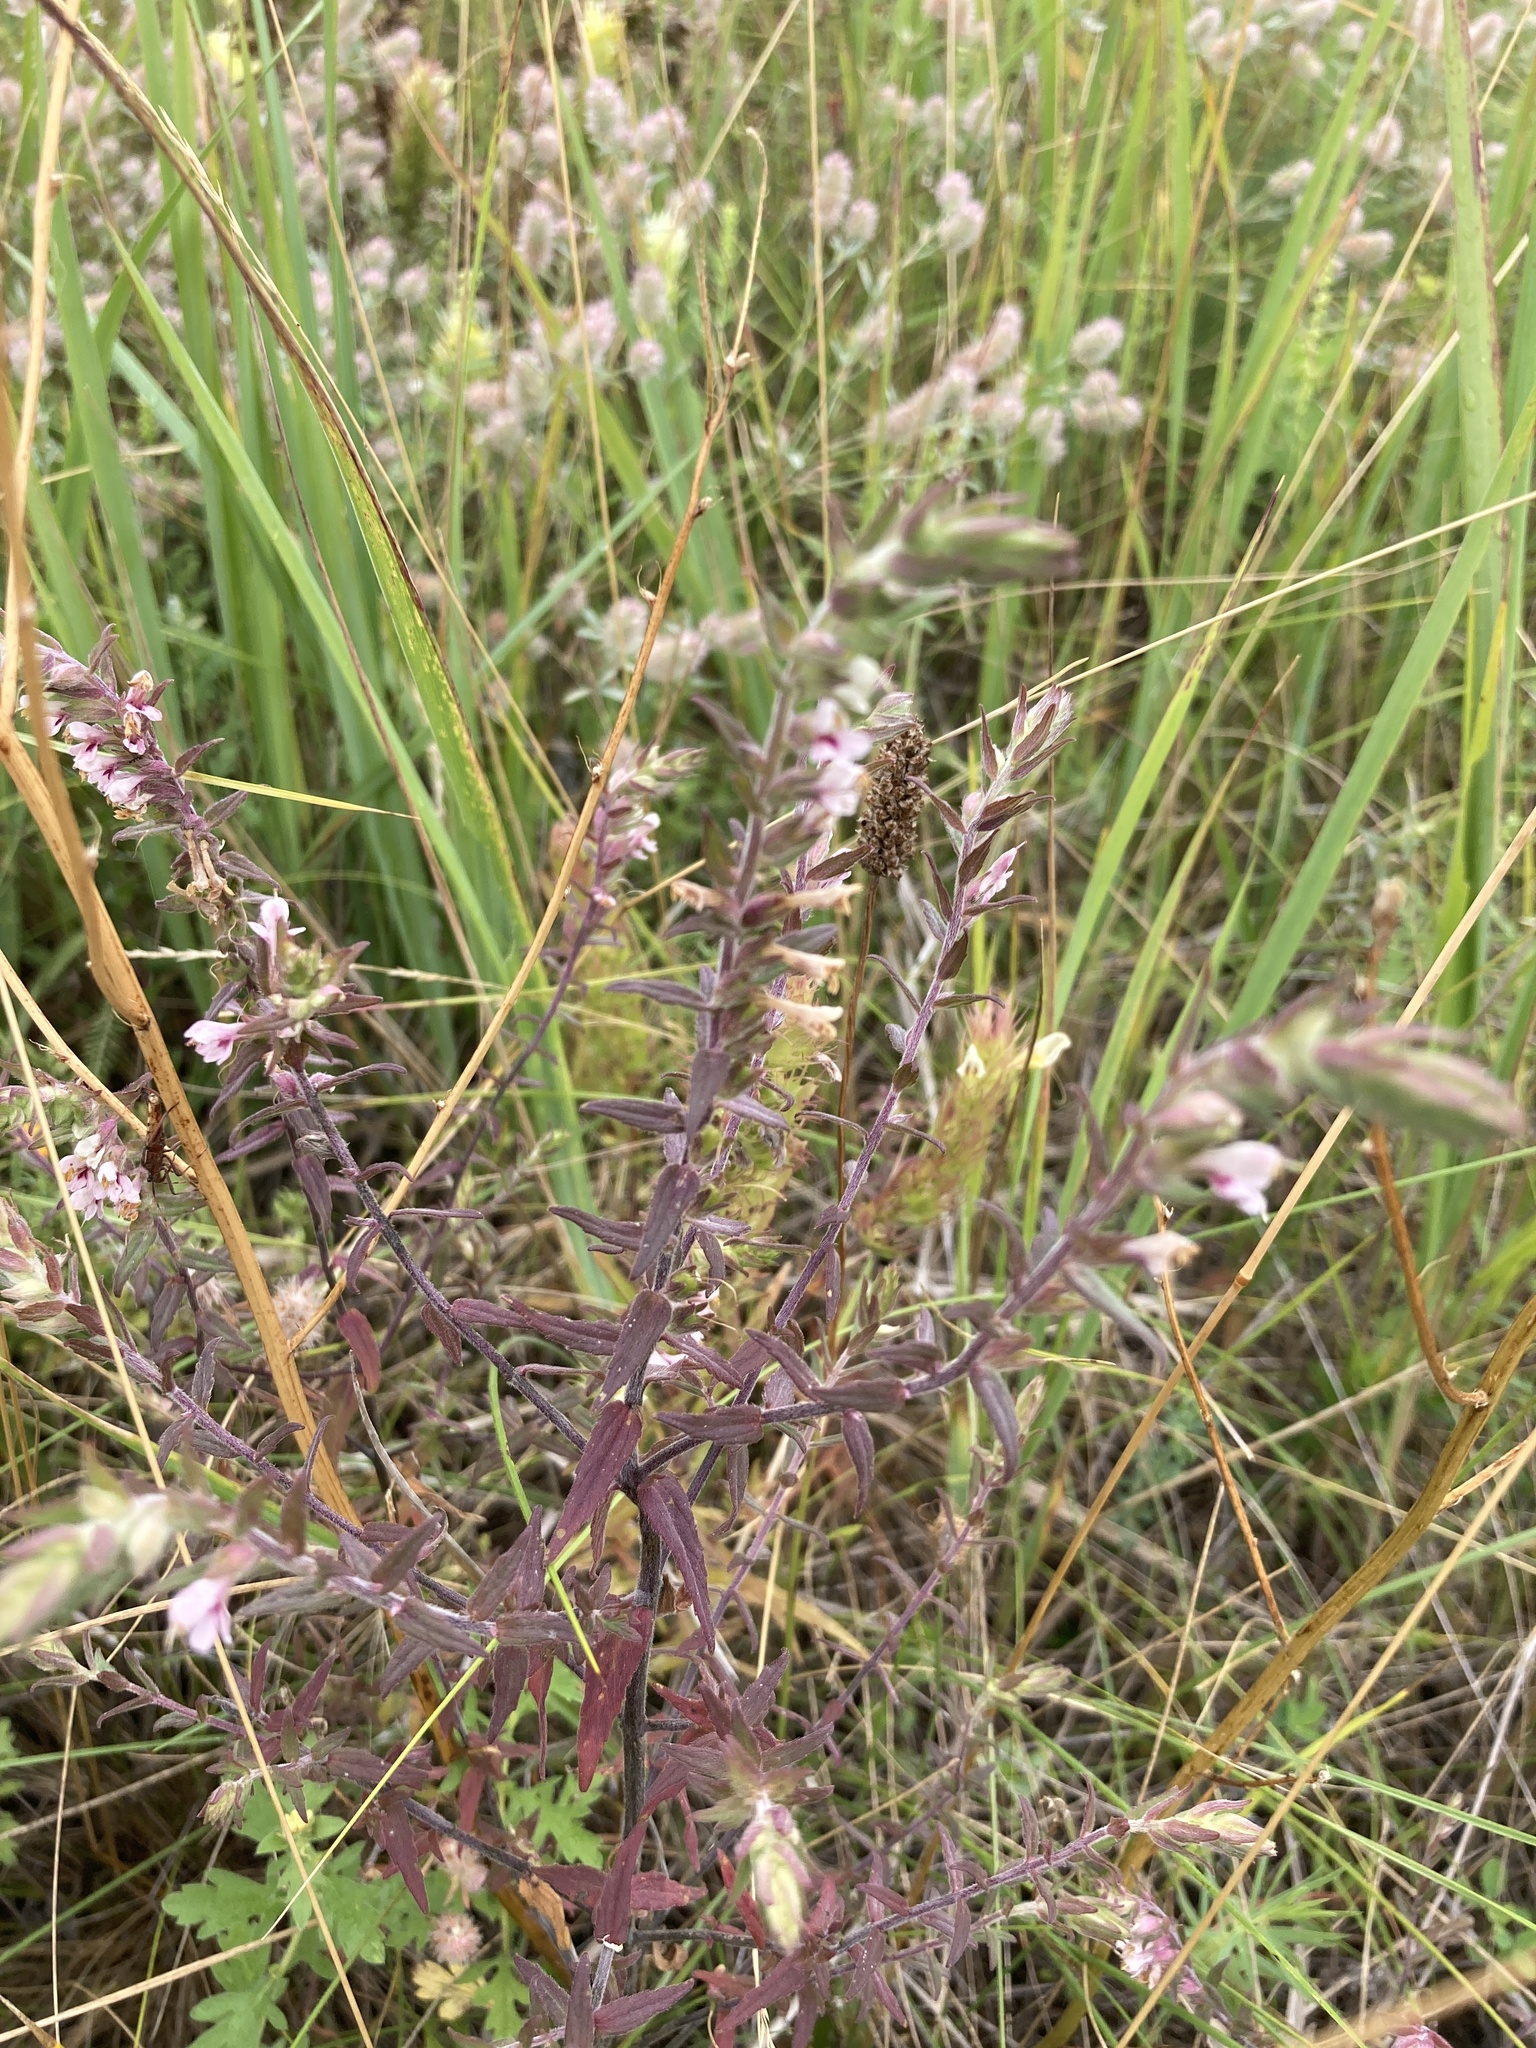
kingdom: Plantae
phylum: Tracheophyta
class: Magnoliopsida
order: Lamiales
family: Orobanchaceae
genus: Odontites
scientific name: Odontites vulgaris
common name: Broomrape
